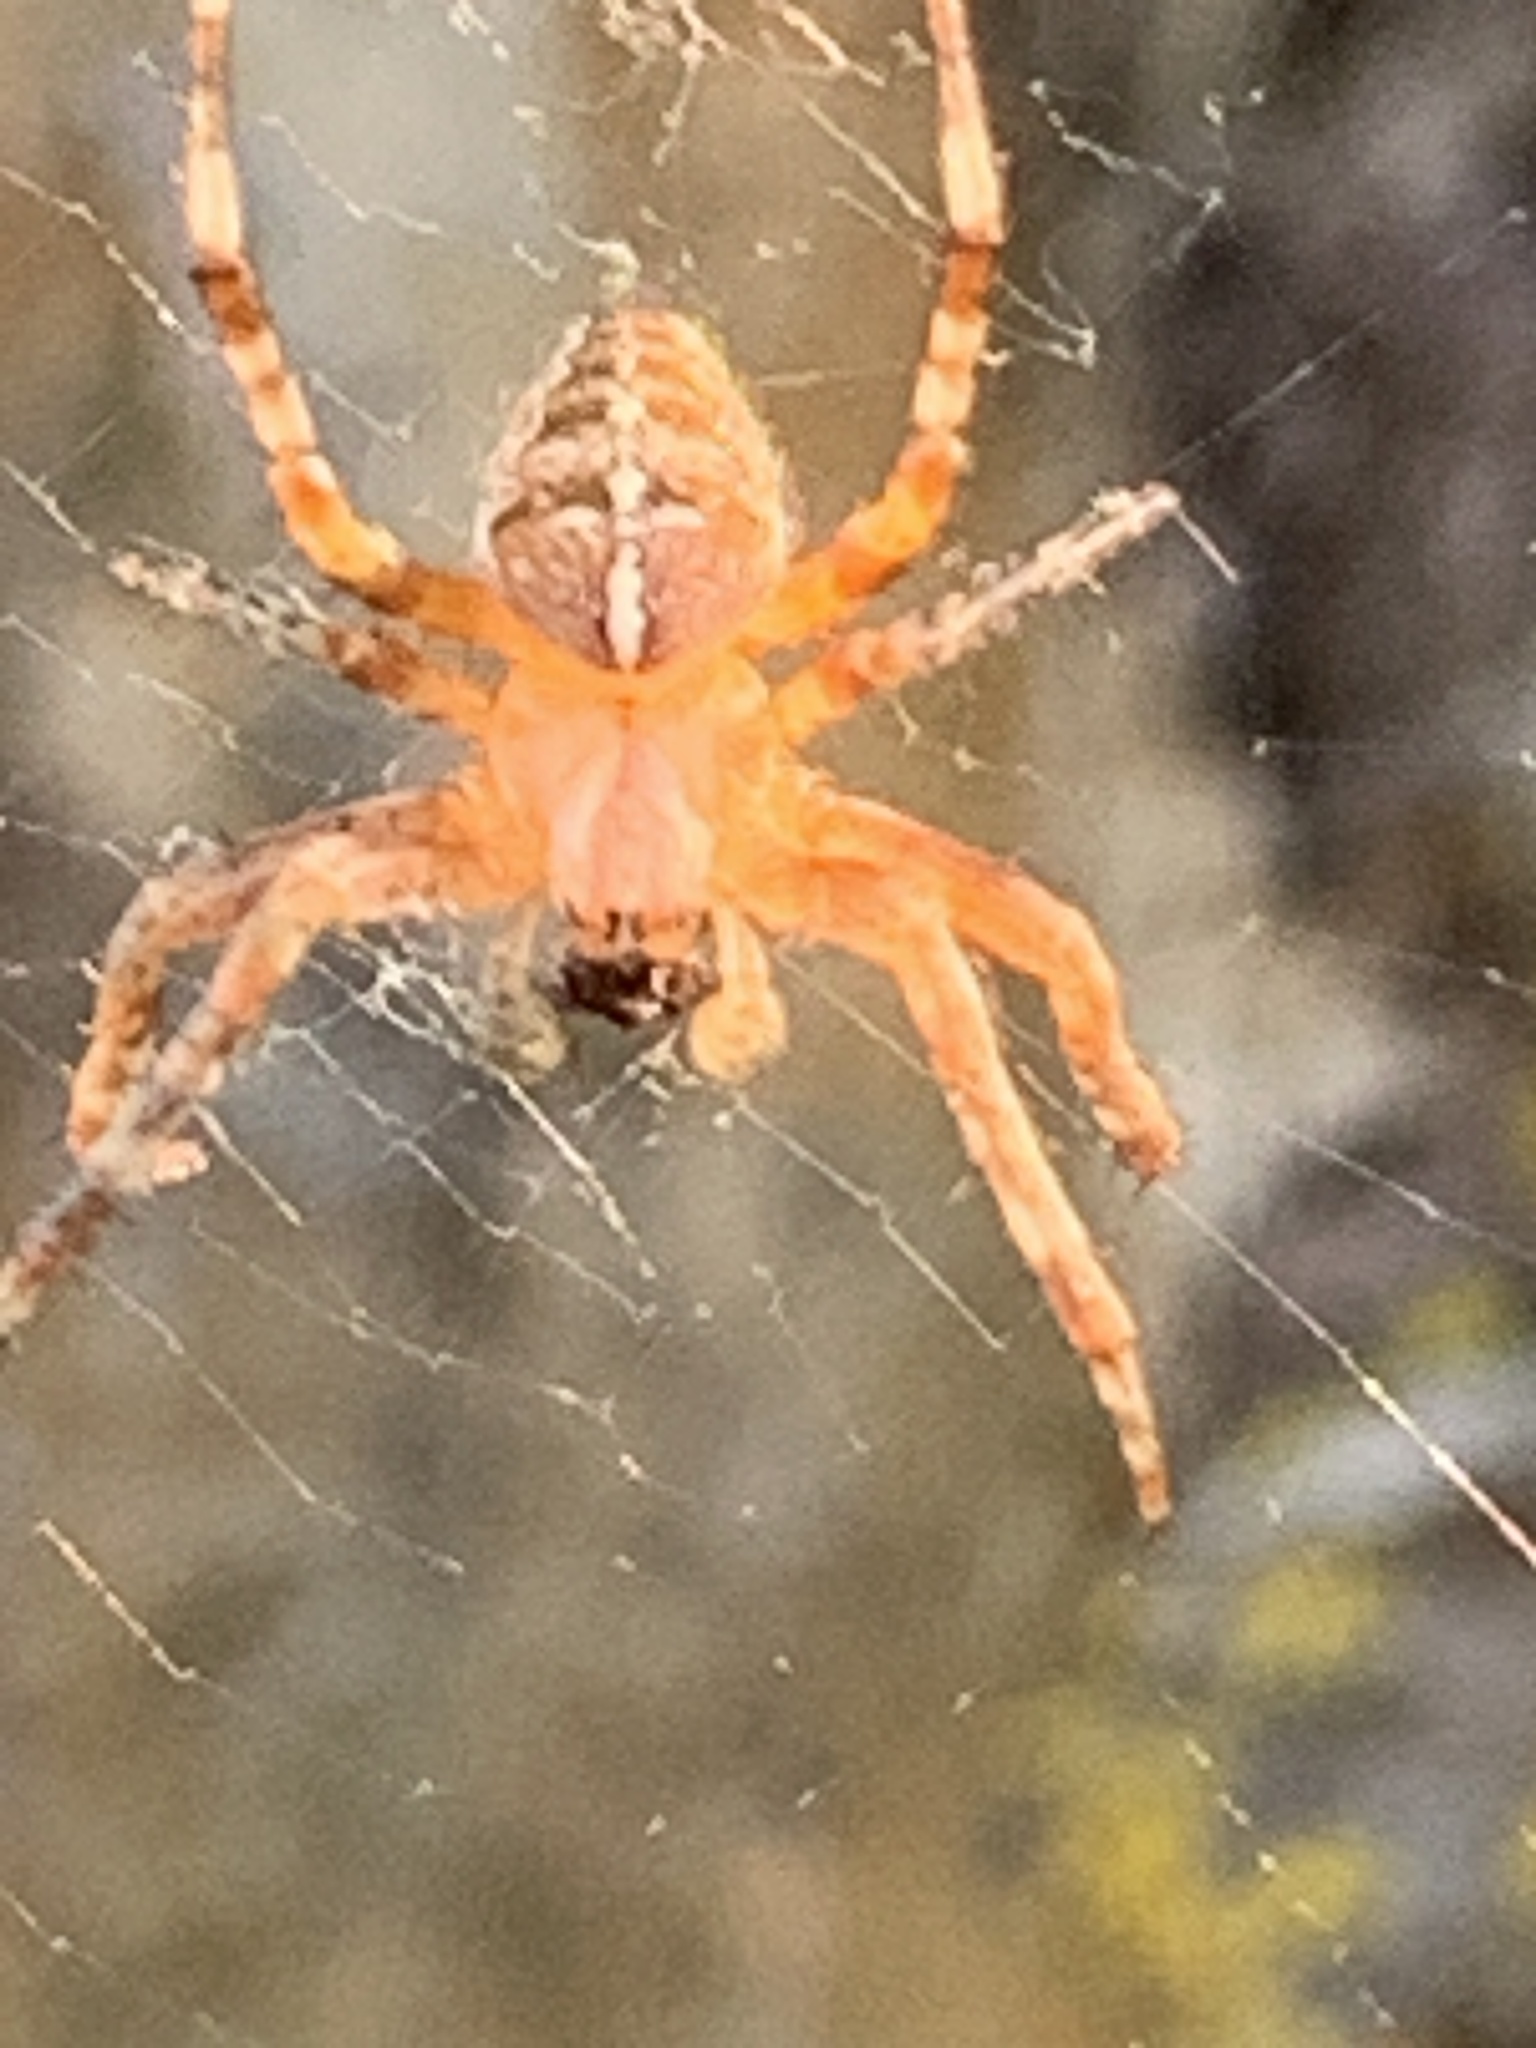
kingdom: Animalia
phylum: Arthropoda
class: Arachnida
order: Araneae
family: Araneidae
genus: Araneus
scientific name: Araneus diadematus
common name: Cross orbweaver
